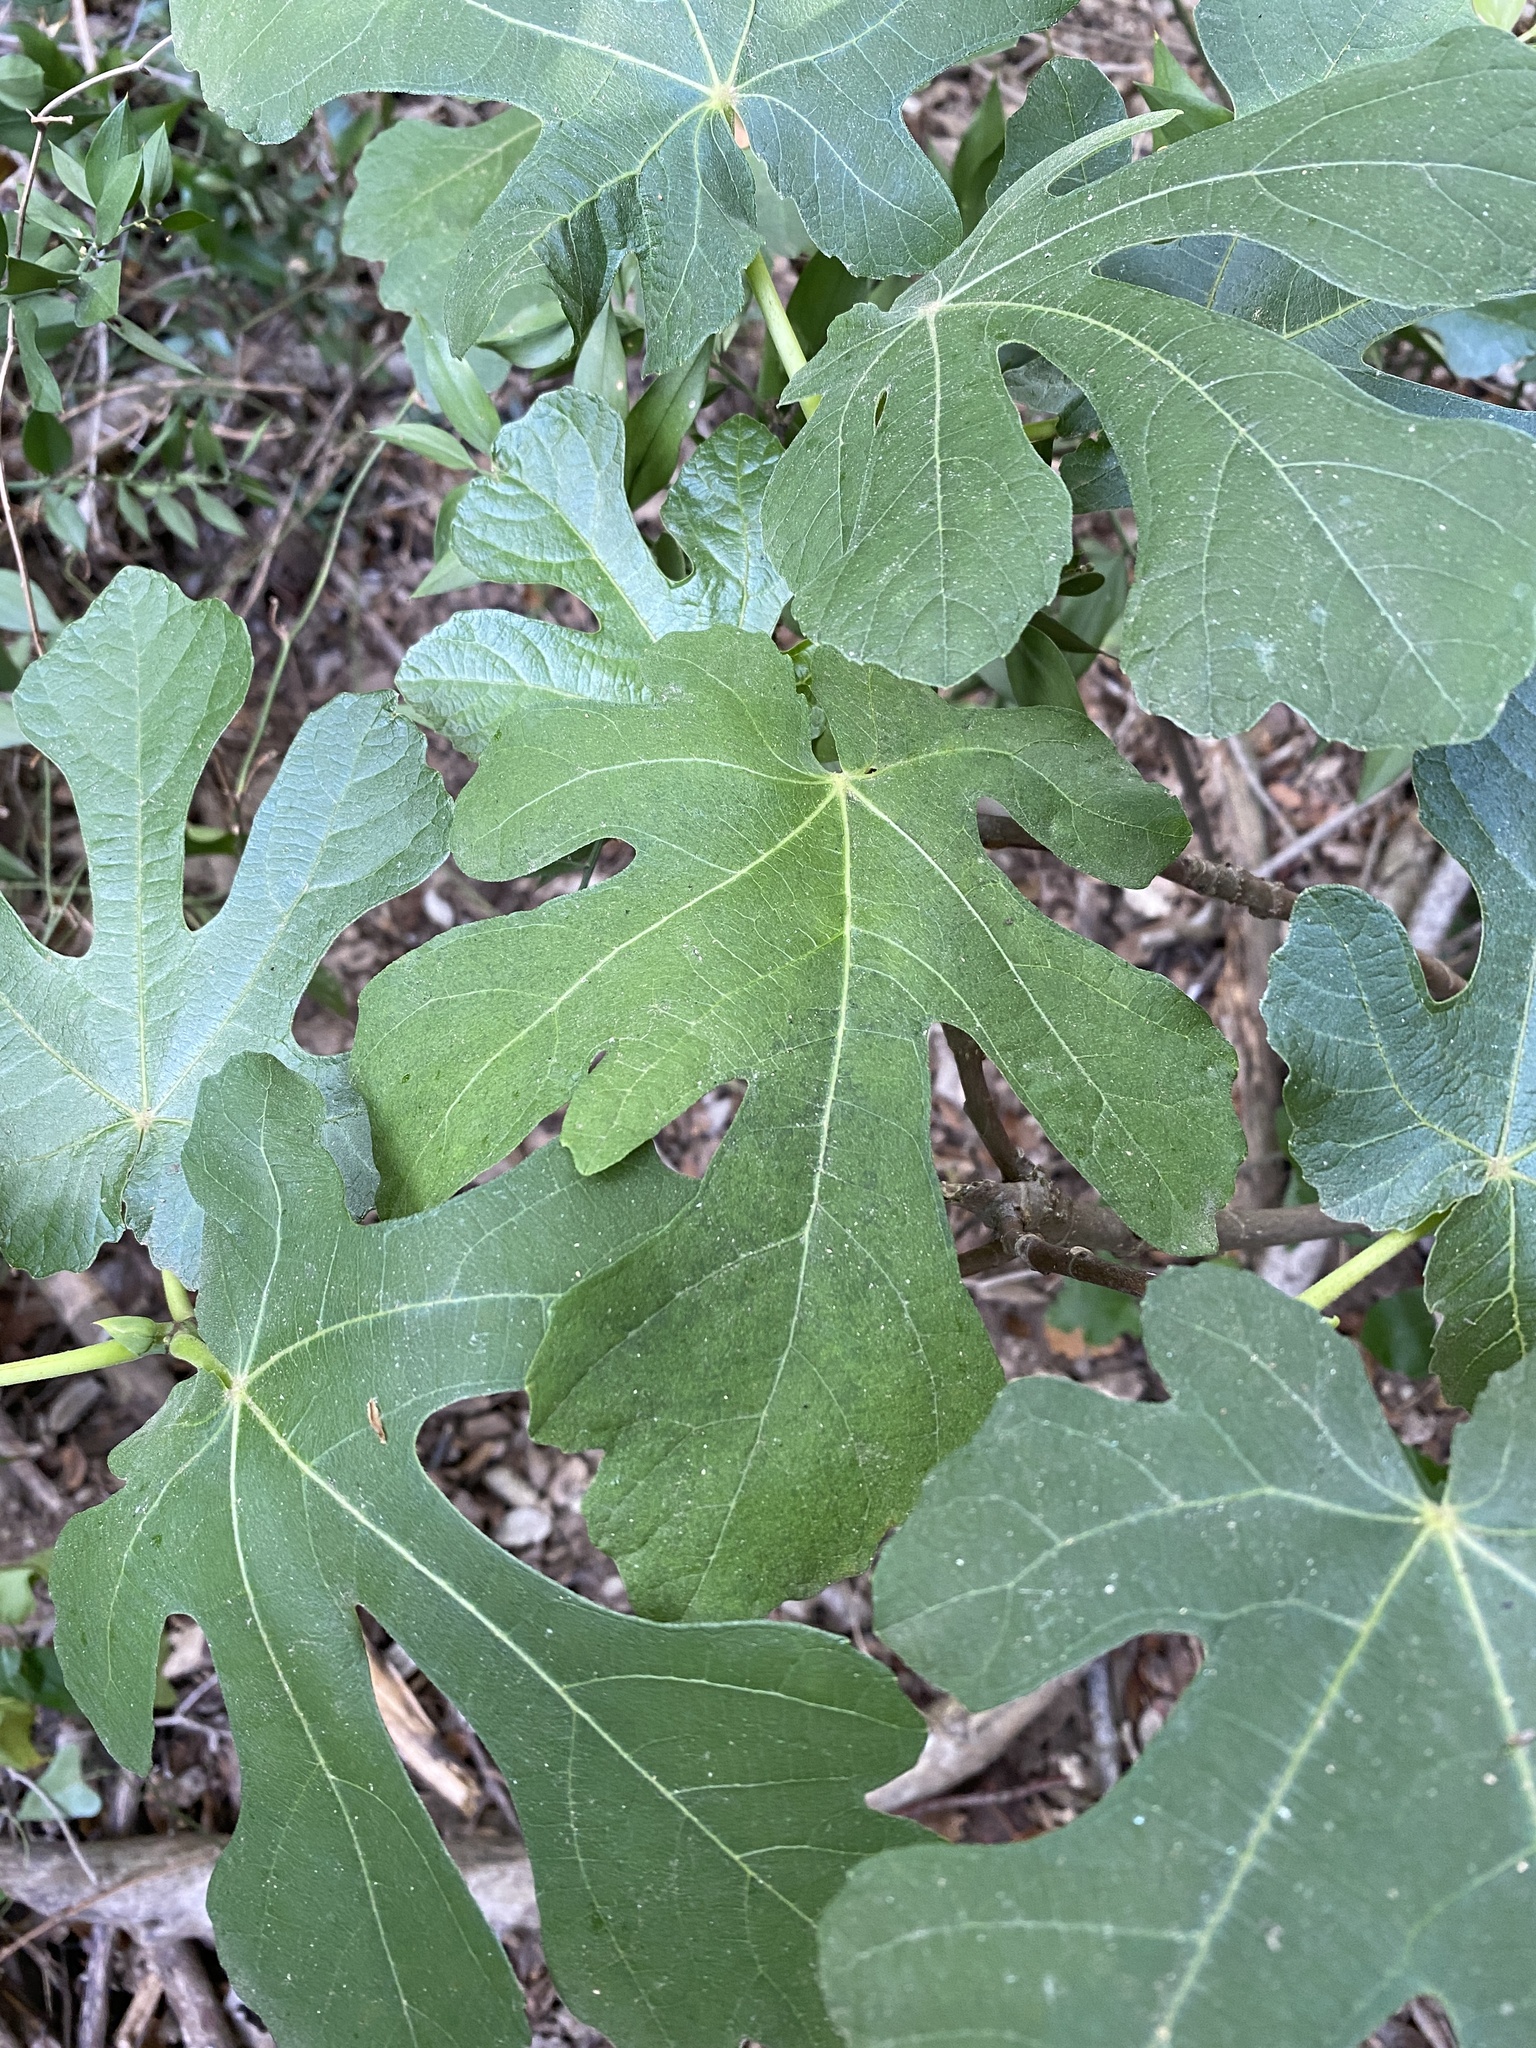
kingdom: Plantae
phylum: Tracheophyta
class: Magnoliopsida
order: Rosales
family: Moraceae
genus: Ficus
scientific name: Ficus carica
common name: Fig
